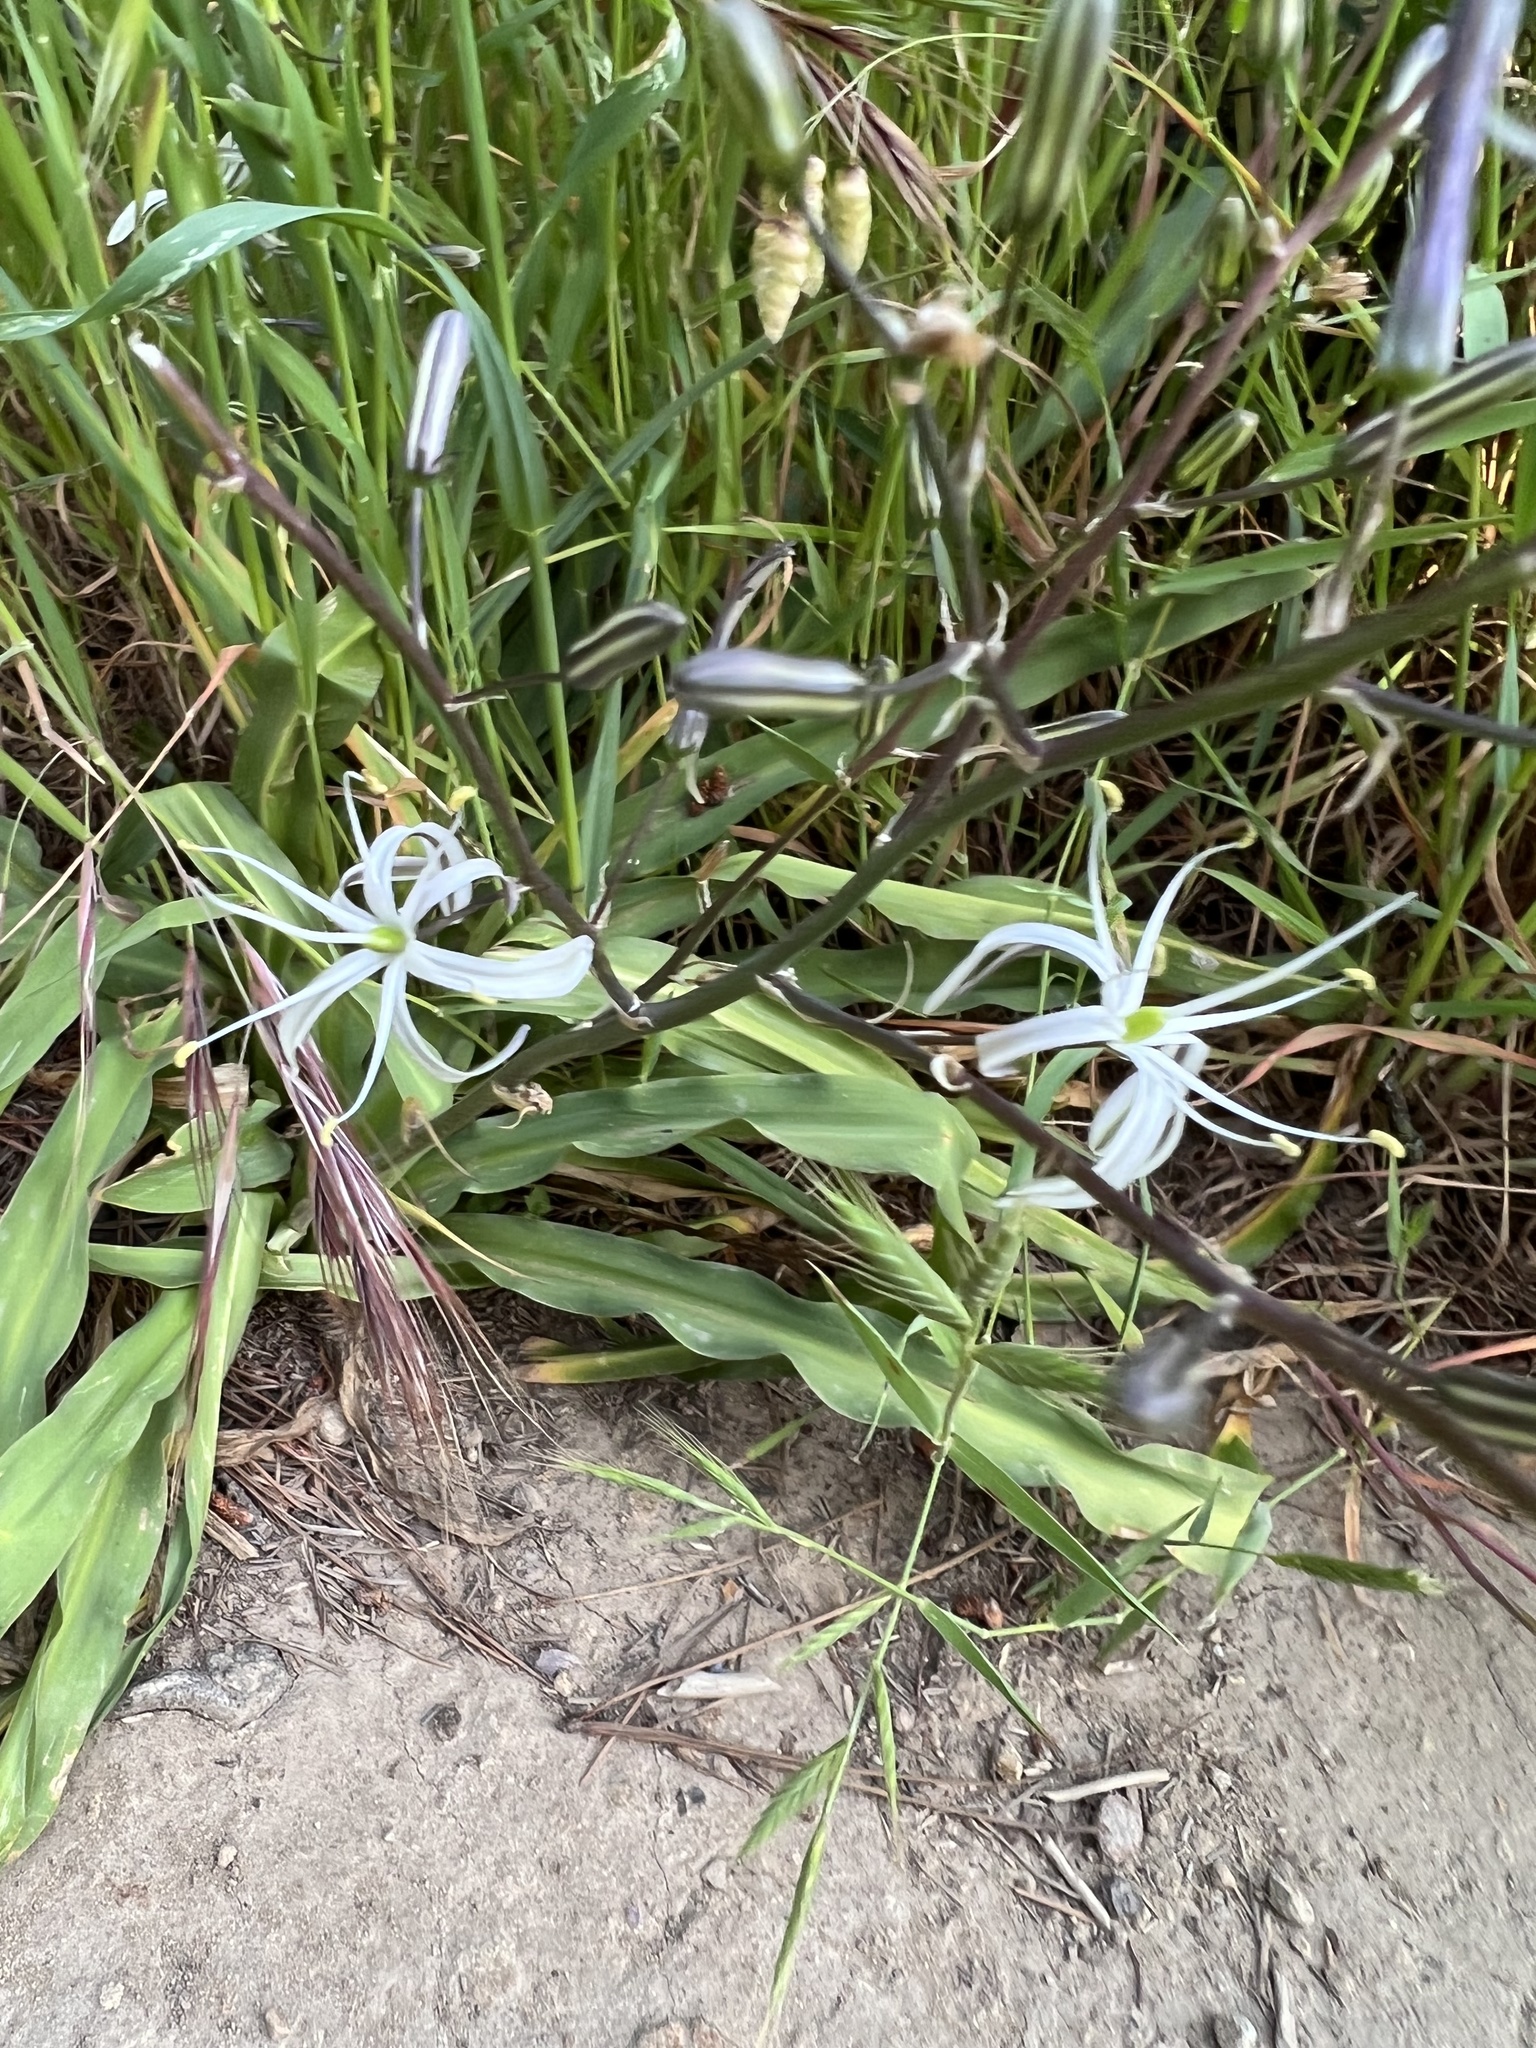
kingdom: Plantae
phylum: Tracheophyta
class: Liliopsida
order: Asparagales
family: Asparagaceae
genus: Chlorogalum
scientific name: Chlorogalum pomeridianum
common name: Amole
